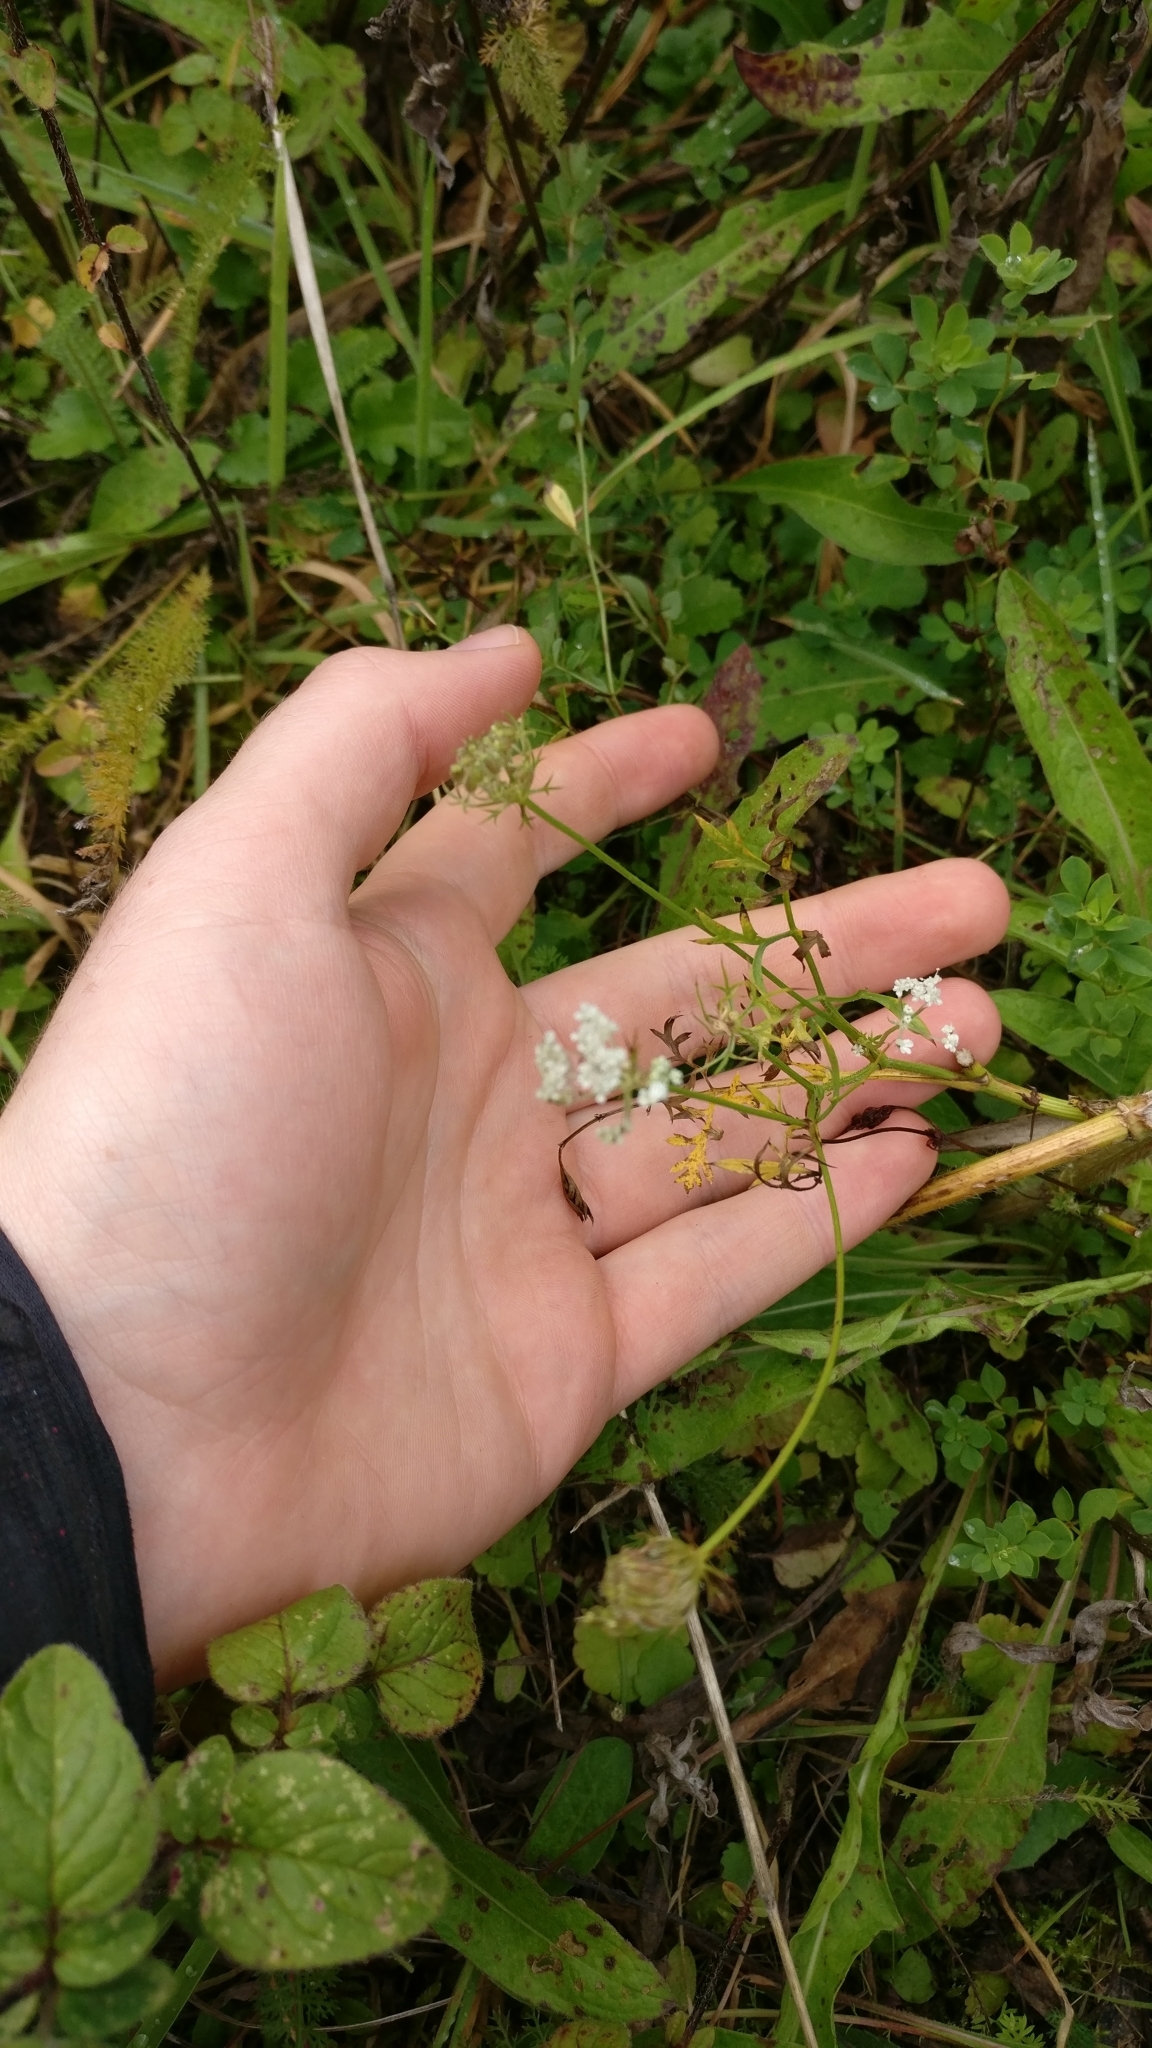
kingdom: Plantae
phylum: Tracheophyta
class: Magnoliopsida
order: Apiales
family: Apiaceae
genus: Daucus
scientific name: Daucus carota
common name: Wild carrot
